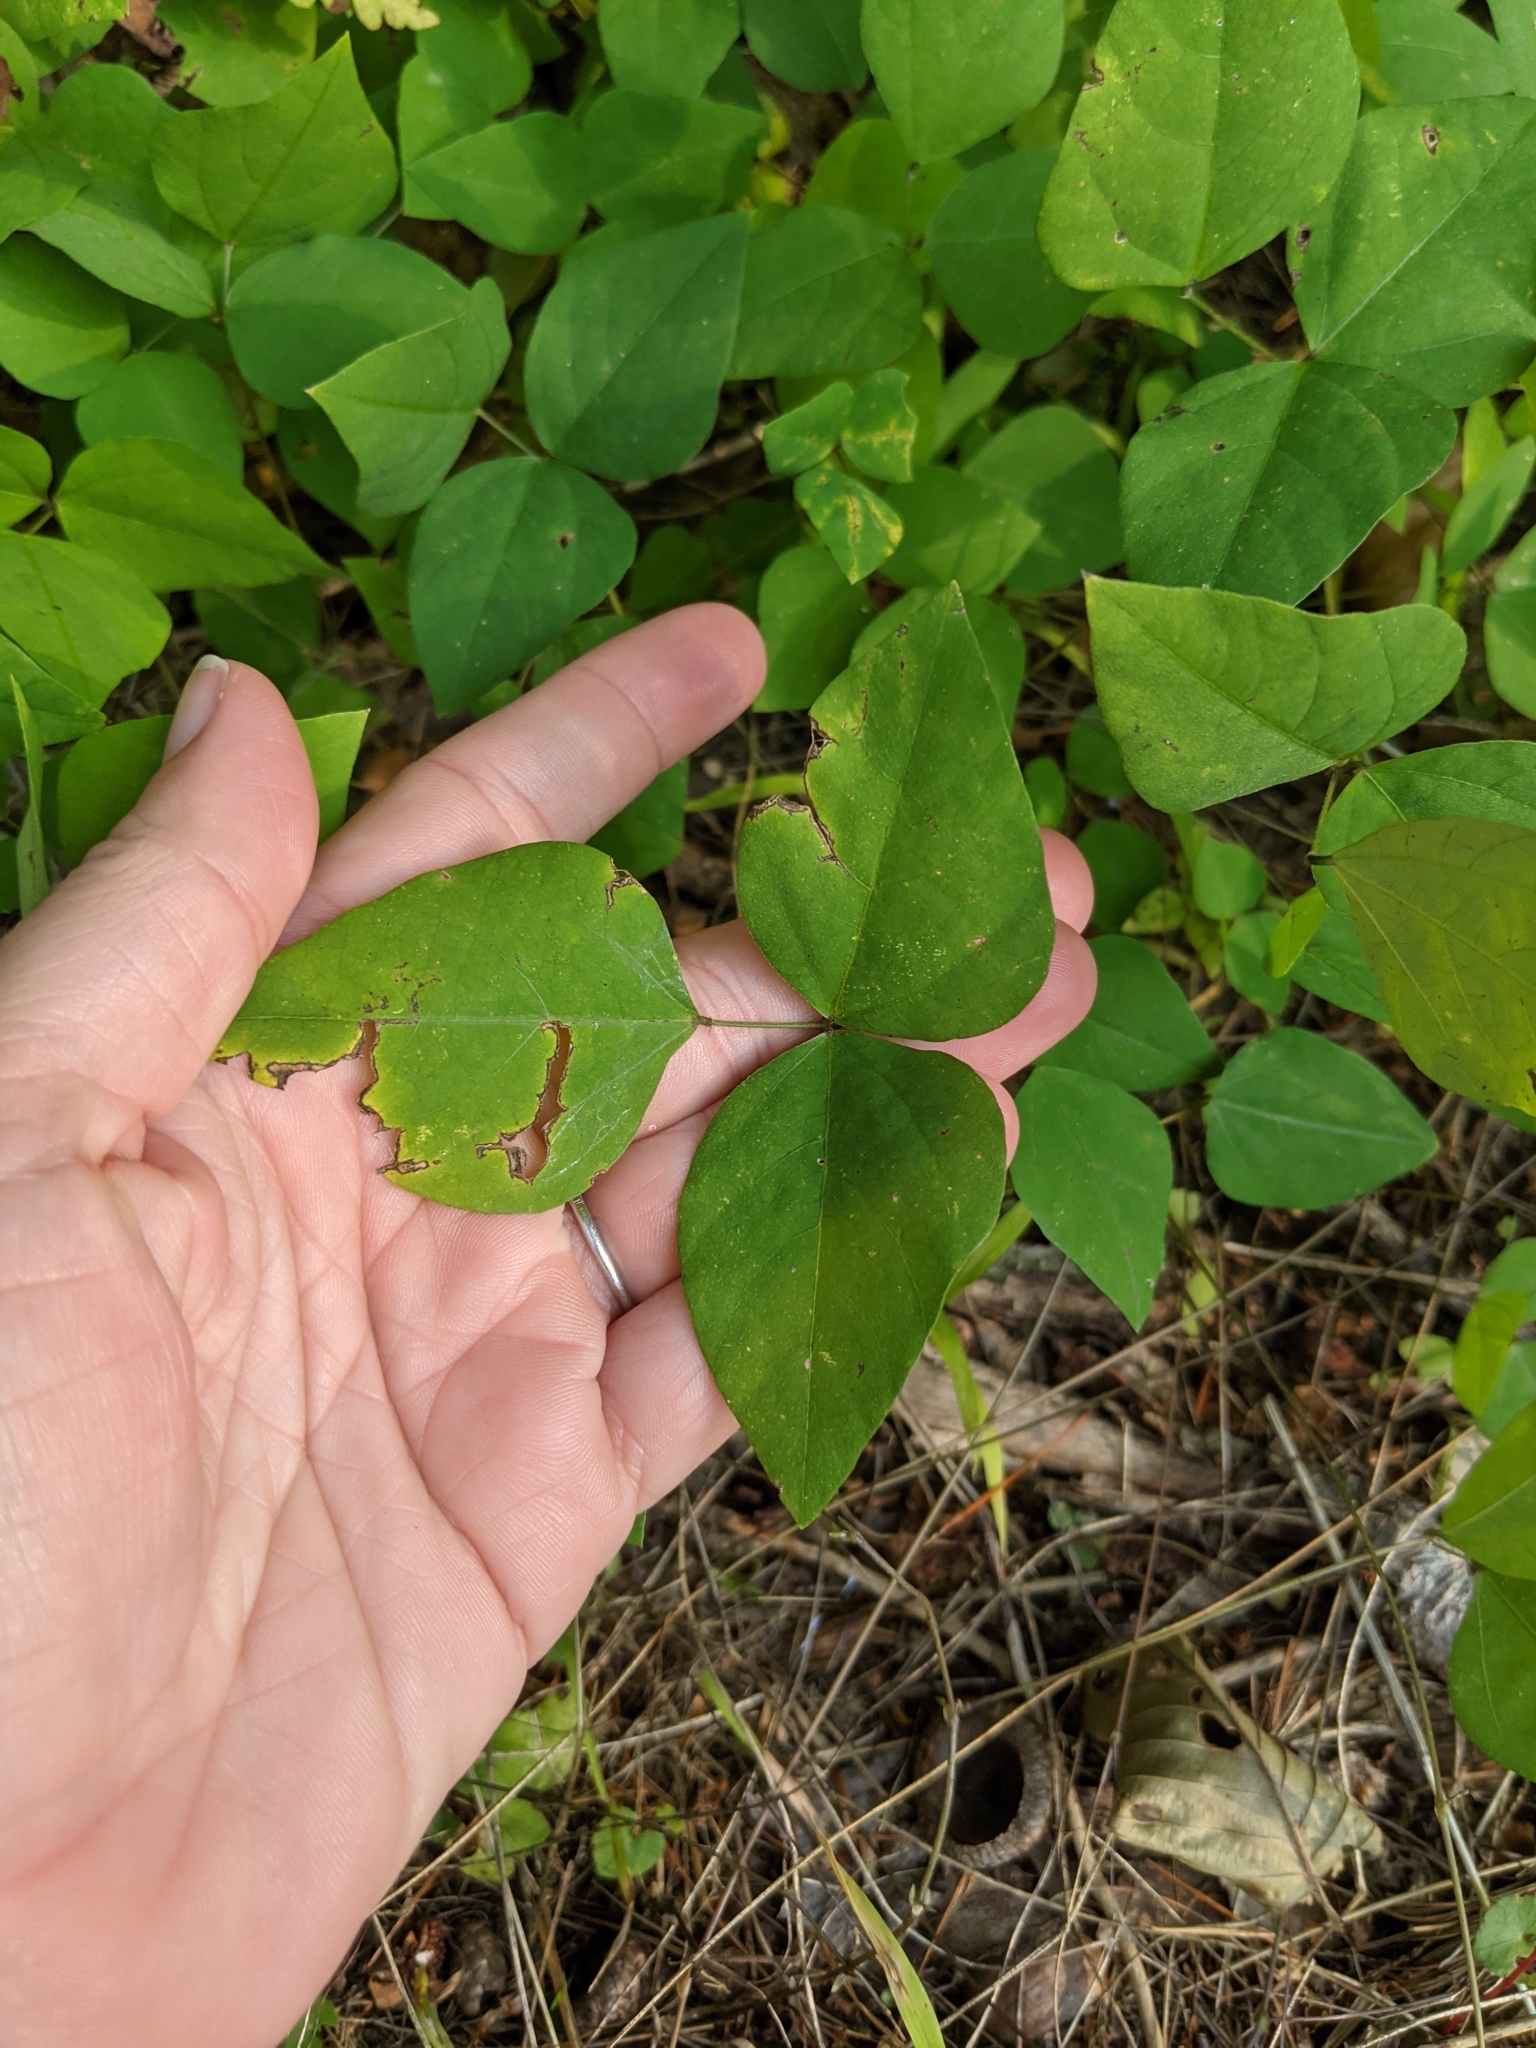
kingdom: Plantae
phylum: Tracheophyta
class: Magnoliopsida
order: Fabales
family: Fabaceae
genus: Amphicarpaea
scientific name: Amphicarpaea bracteata
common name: American hog peanut
